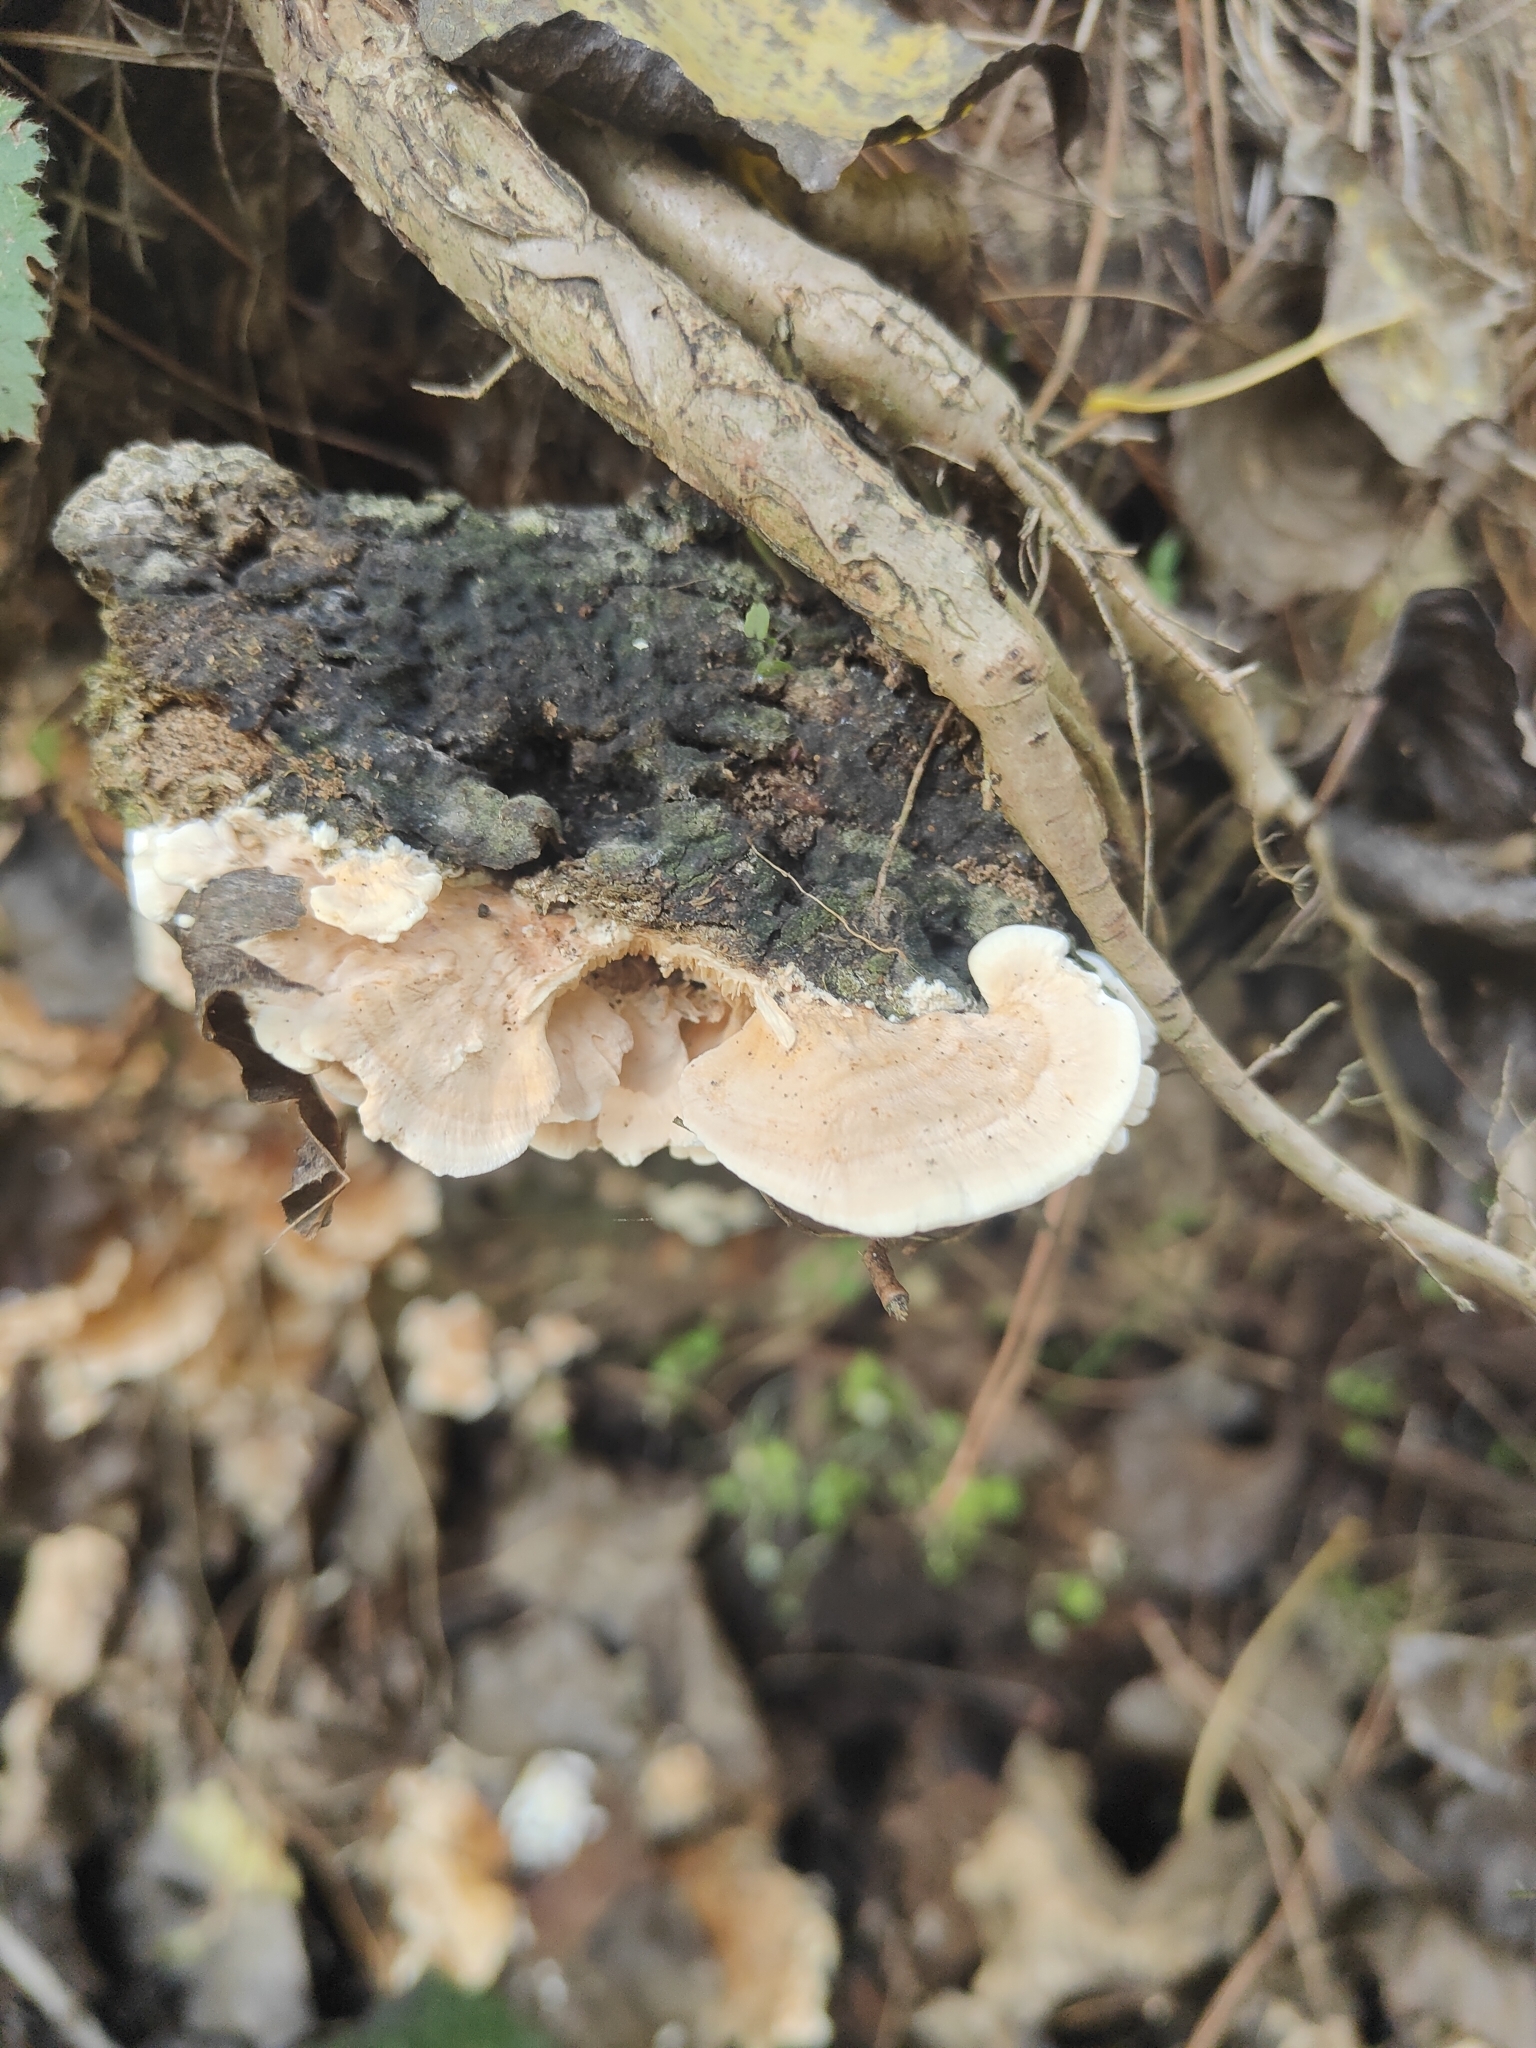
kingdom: Fungi
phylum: Basidiomycota
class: Agaricomycetes
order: Polyporales
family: Cerrenaceae
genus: Cerrena
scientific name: Cerrena zonata
